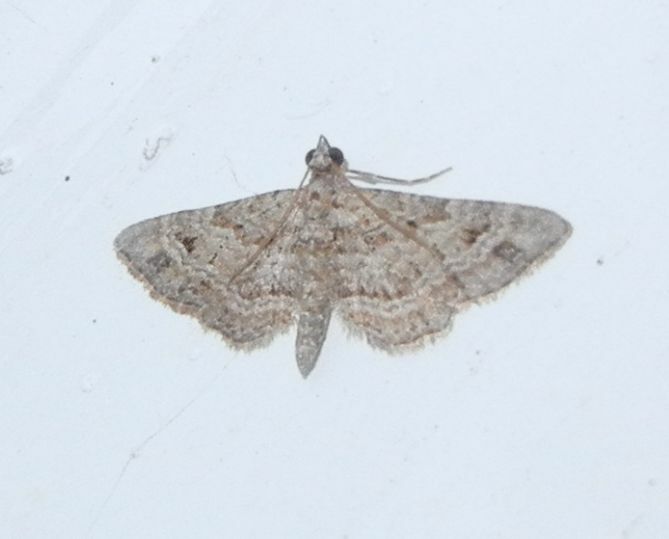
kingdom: Animalia
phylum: Arthropoda
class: Insecta
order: Lepidoptera
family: Geometridae
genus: Gymnoscelis
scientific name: Gymnoscelis rufifasciata
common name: Double-striped pug
